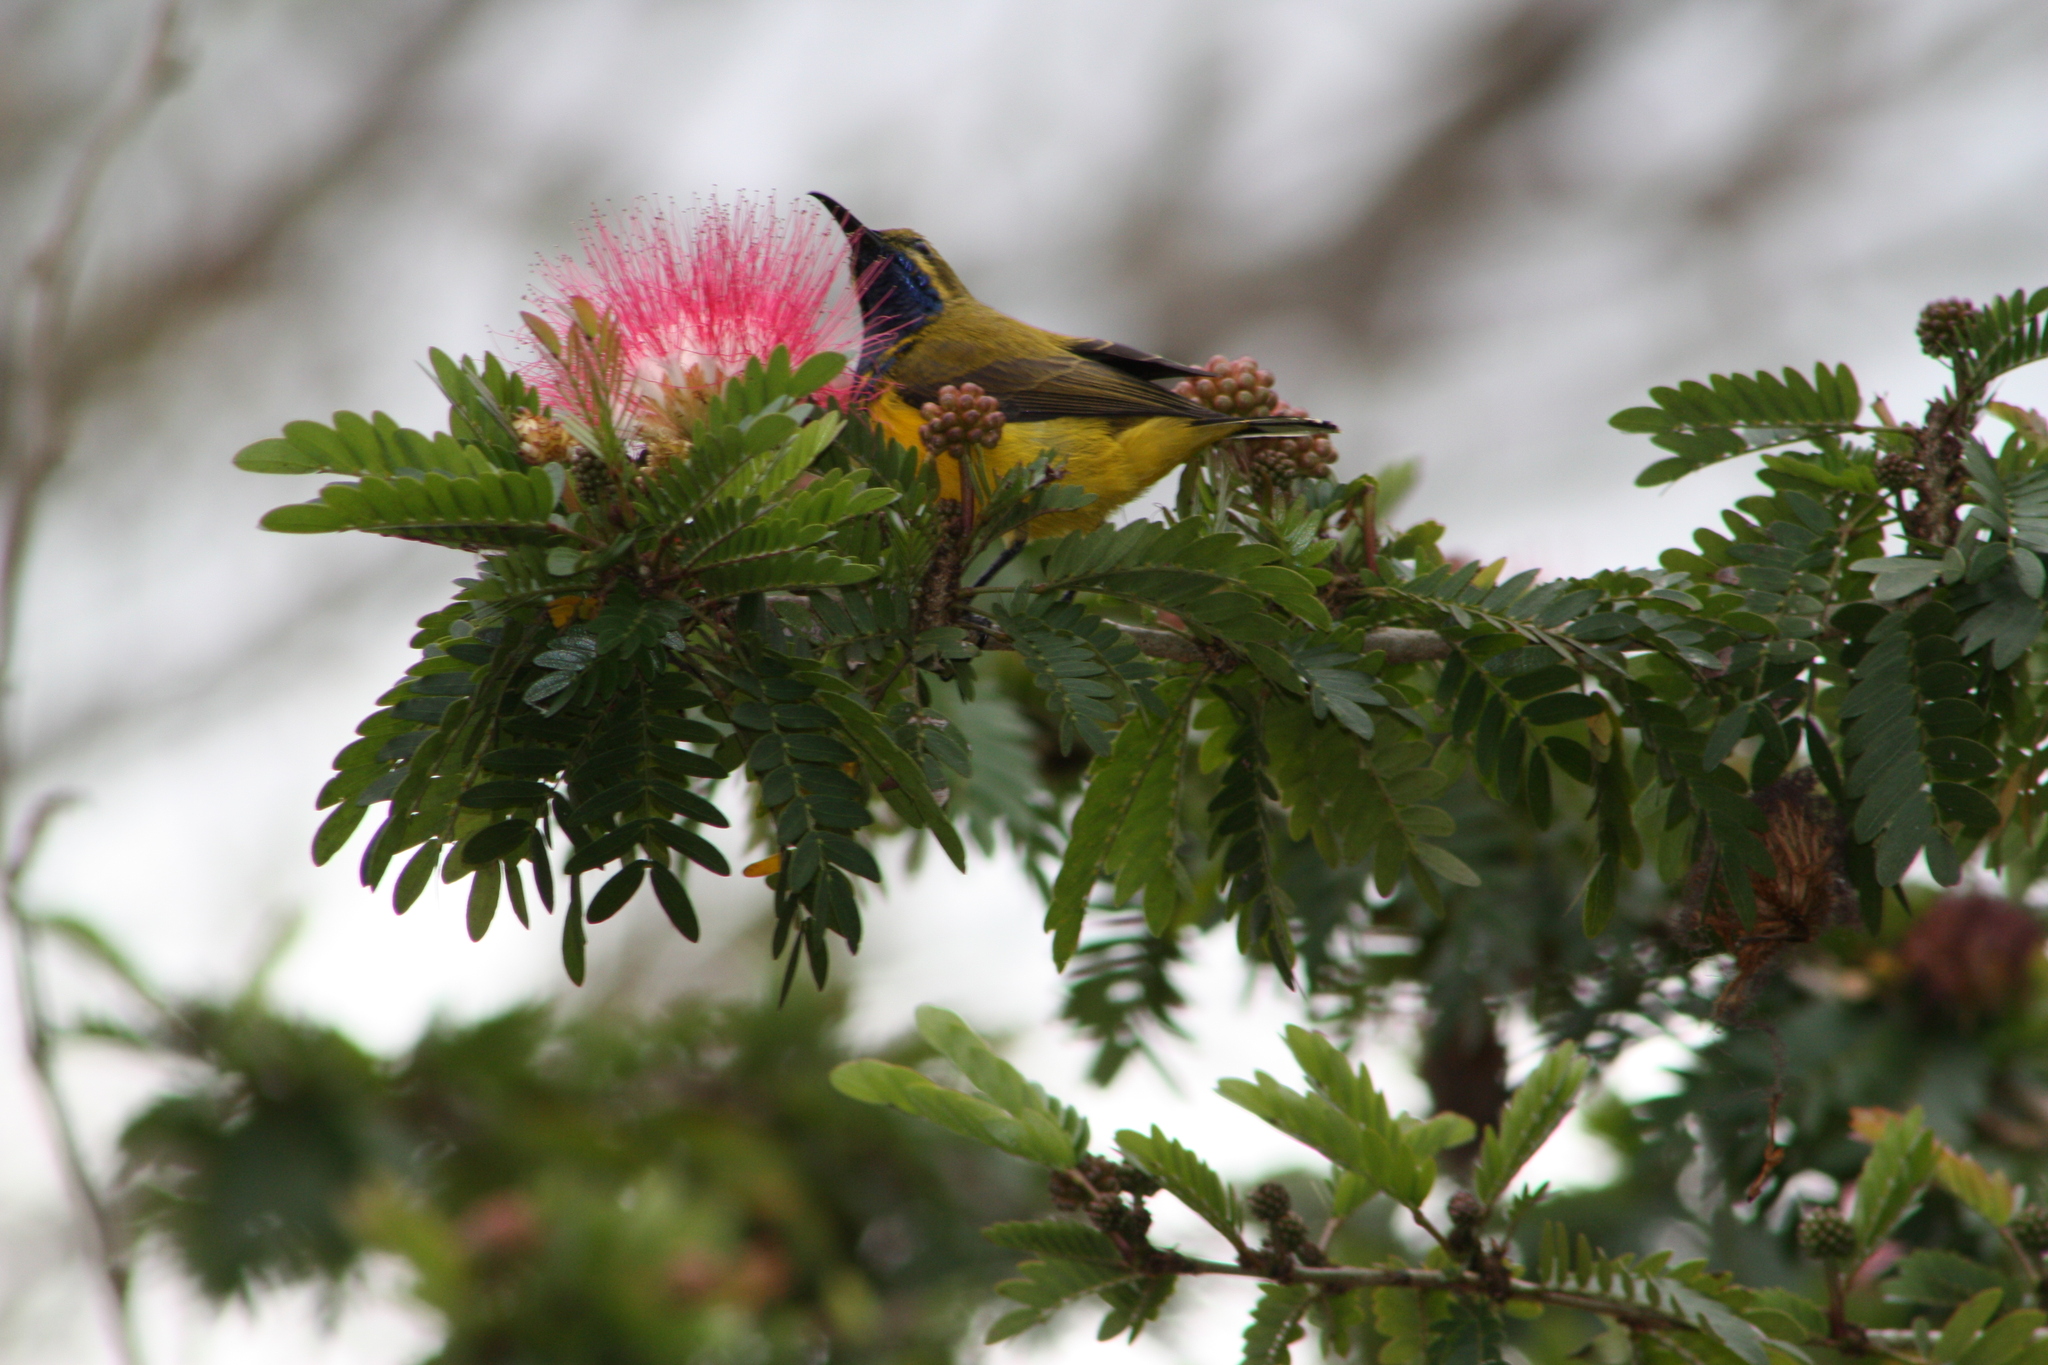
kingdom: Animalia
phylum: Chordata
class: Aves
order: Passeriformes
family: Nectariniidae
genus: Cinnyris
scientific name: Cinnyris
